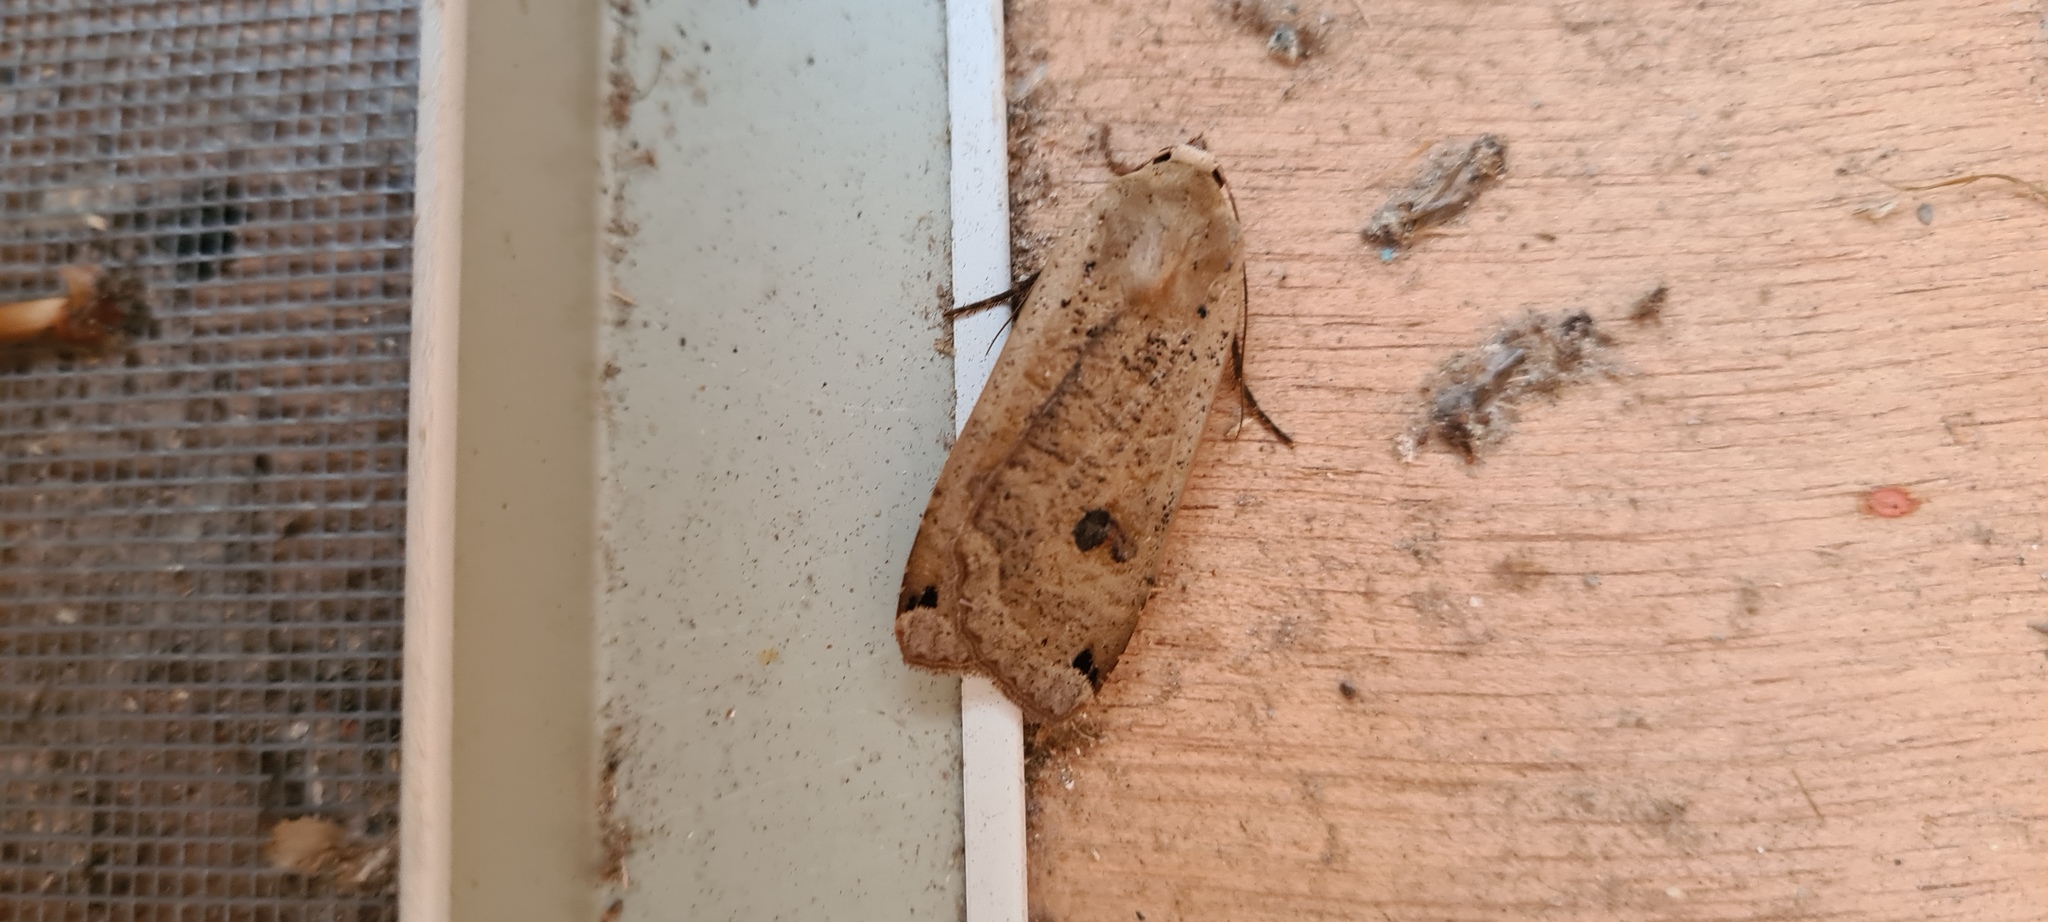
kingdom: Animalia
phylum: Arthropoda
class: Insecta
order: Lepidoptera
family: Noctuidae
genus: Noctua
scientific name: Noctua pronuba
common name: Large yellow underwing
